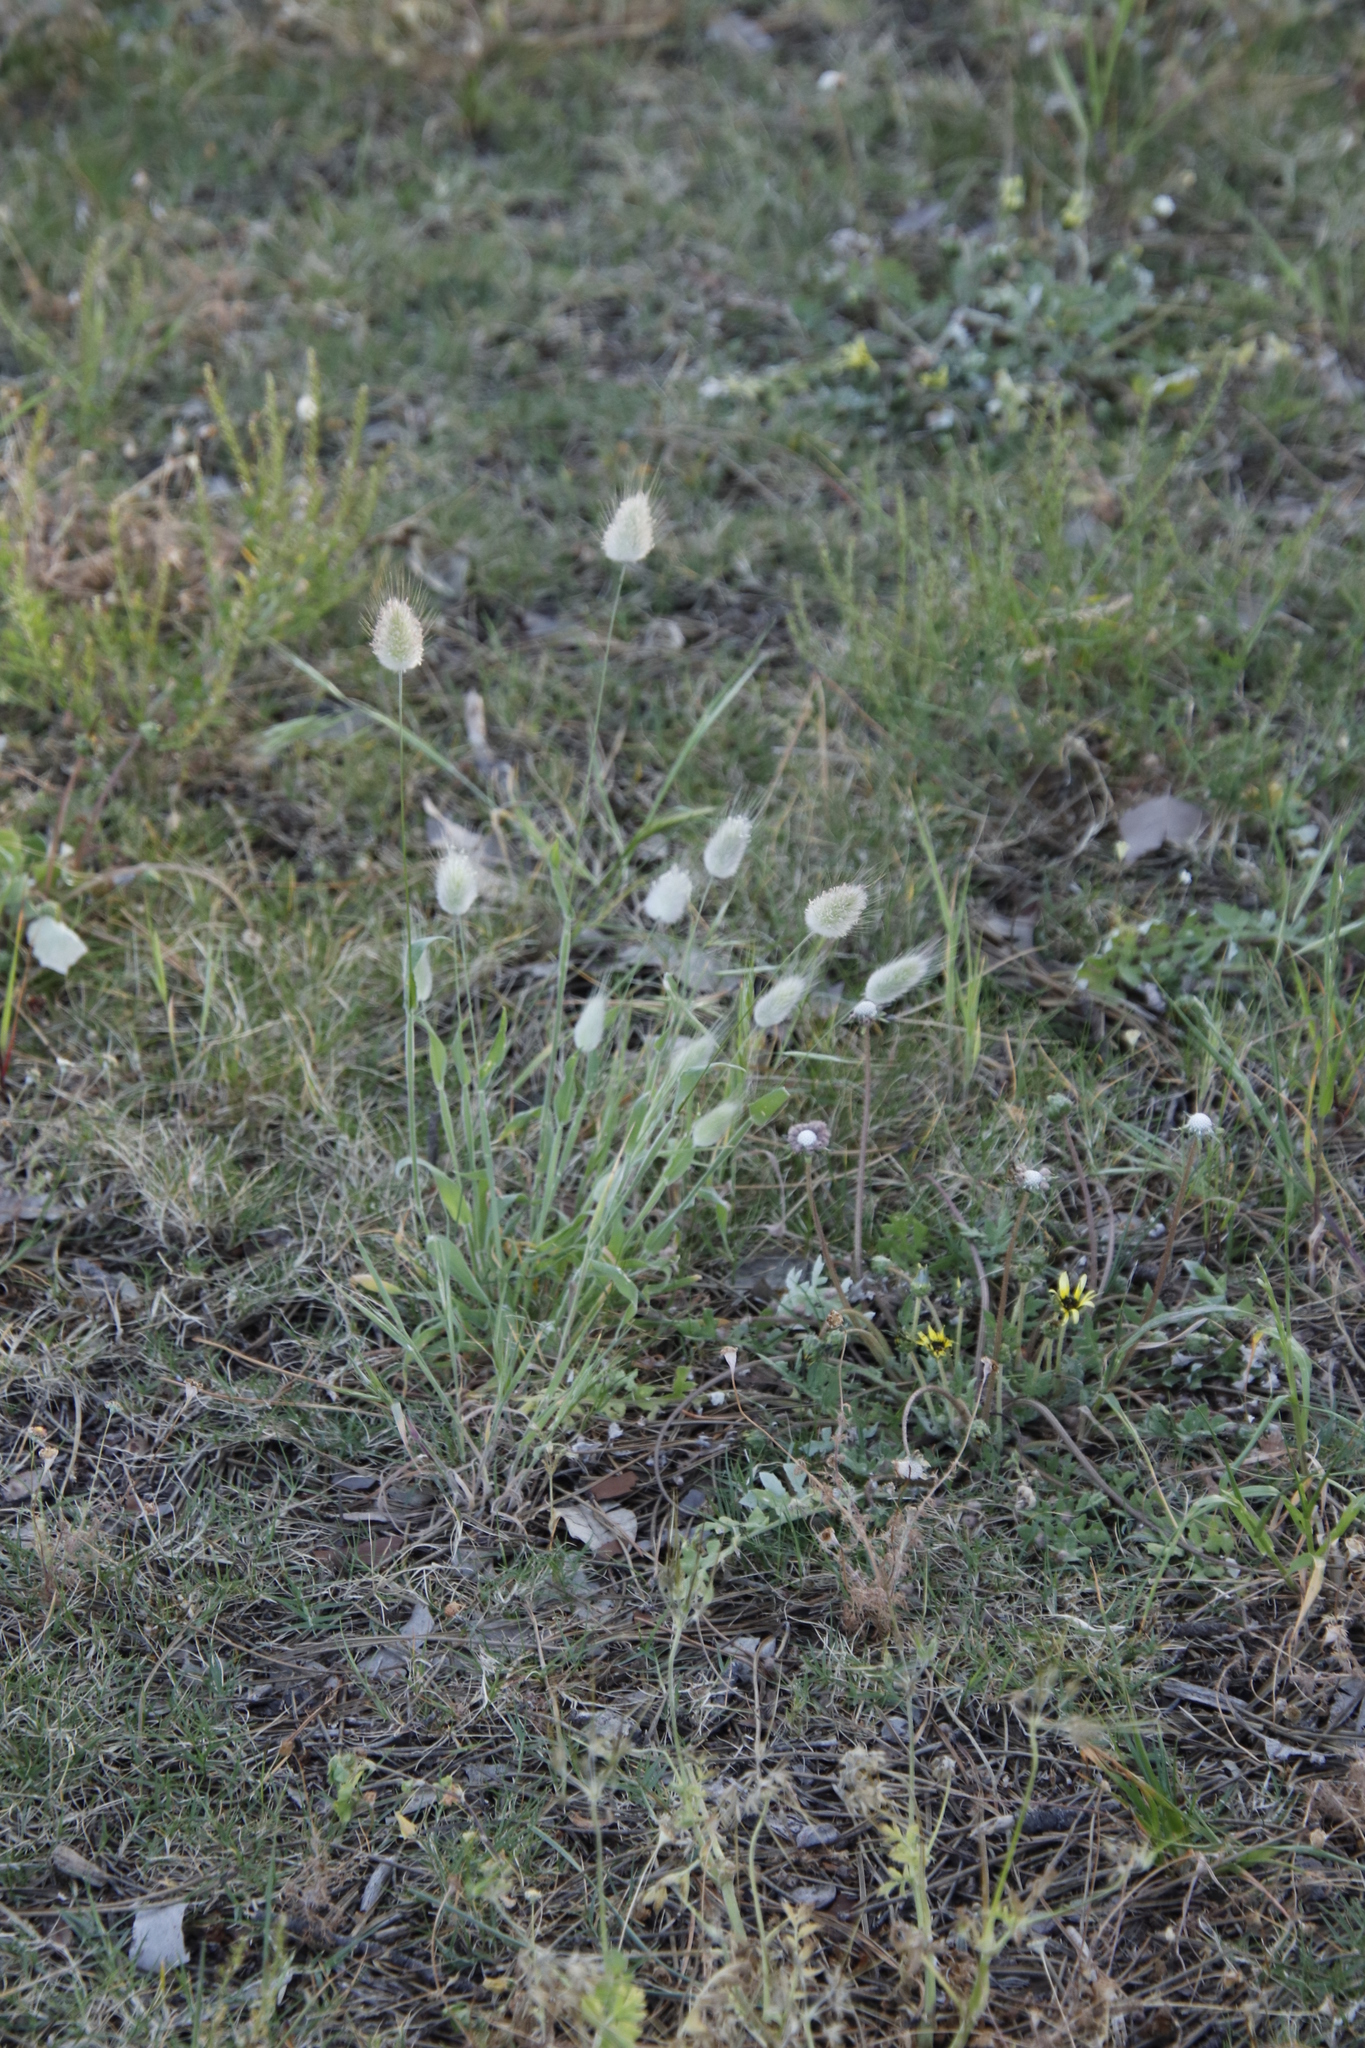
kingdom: Plantae
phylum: Tracheophyta
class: Liliopsida
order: Poales
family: Poaceae
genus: Lagurus
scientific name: Lagurus ovatus
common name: Hare's-tail
